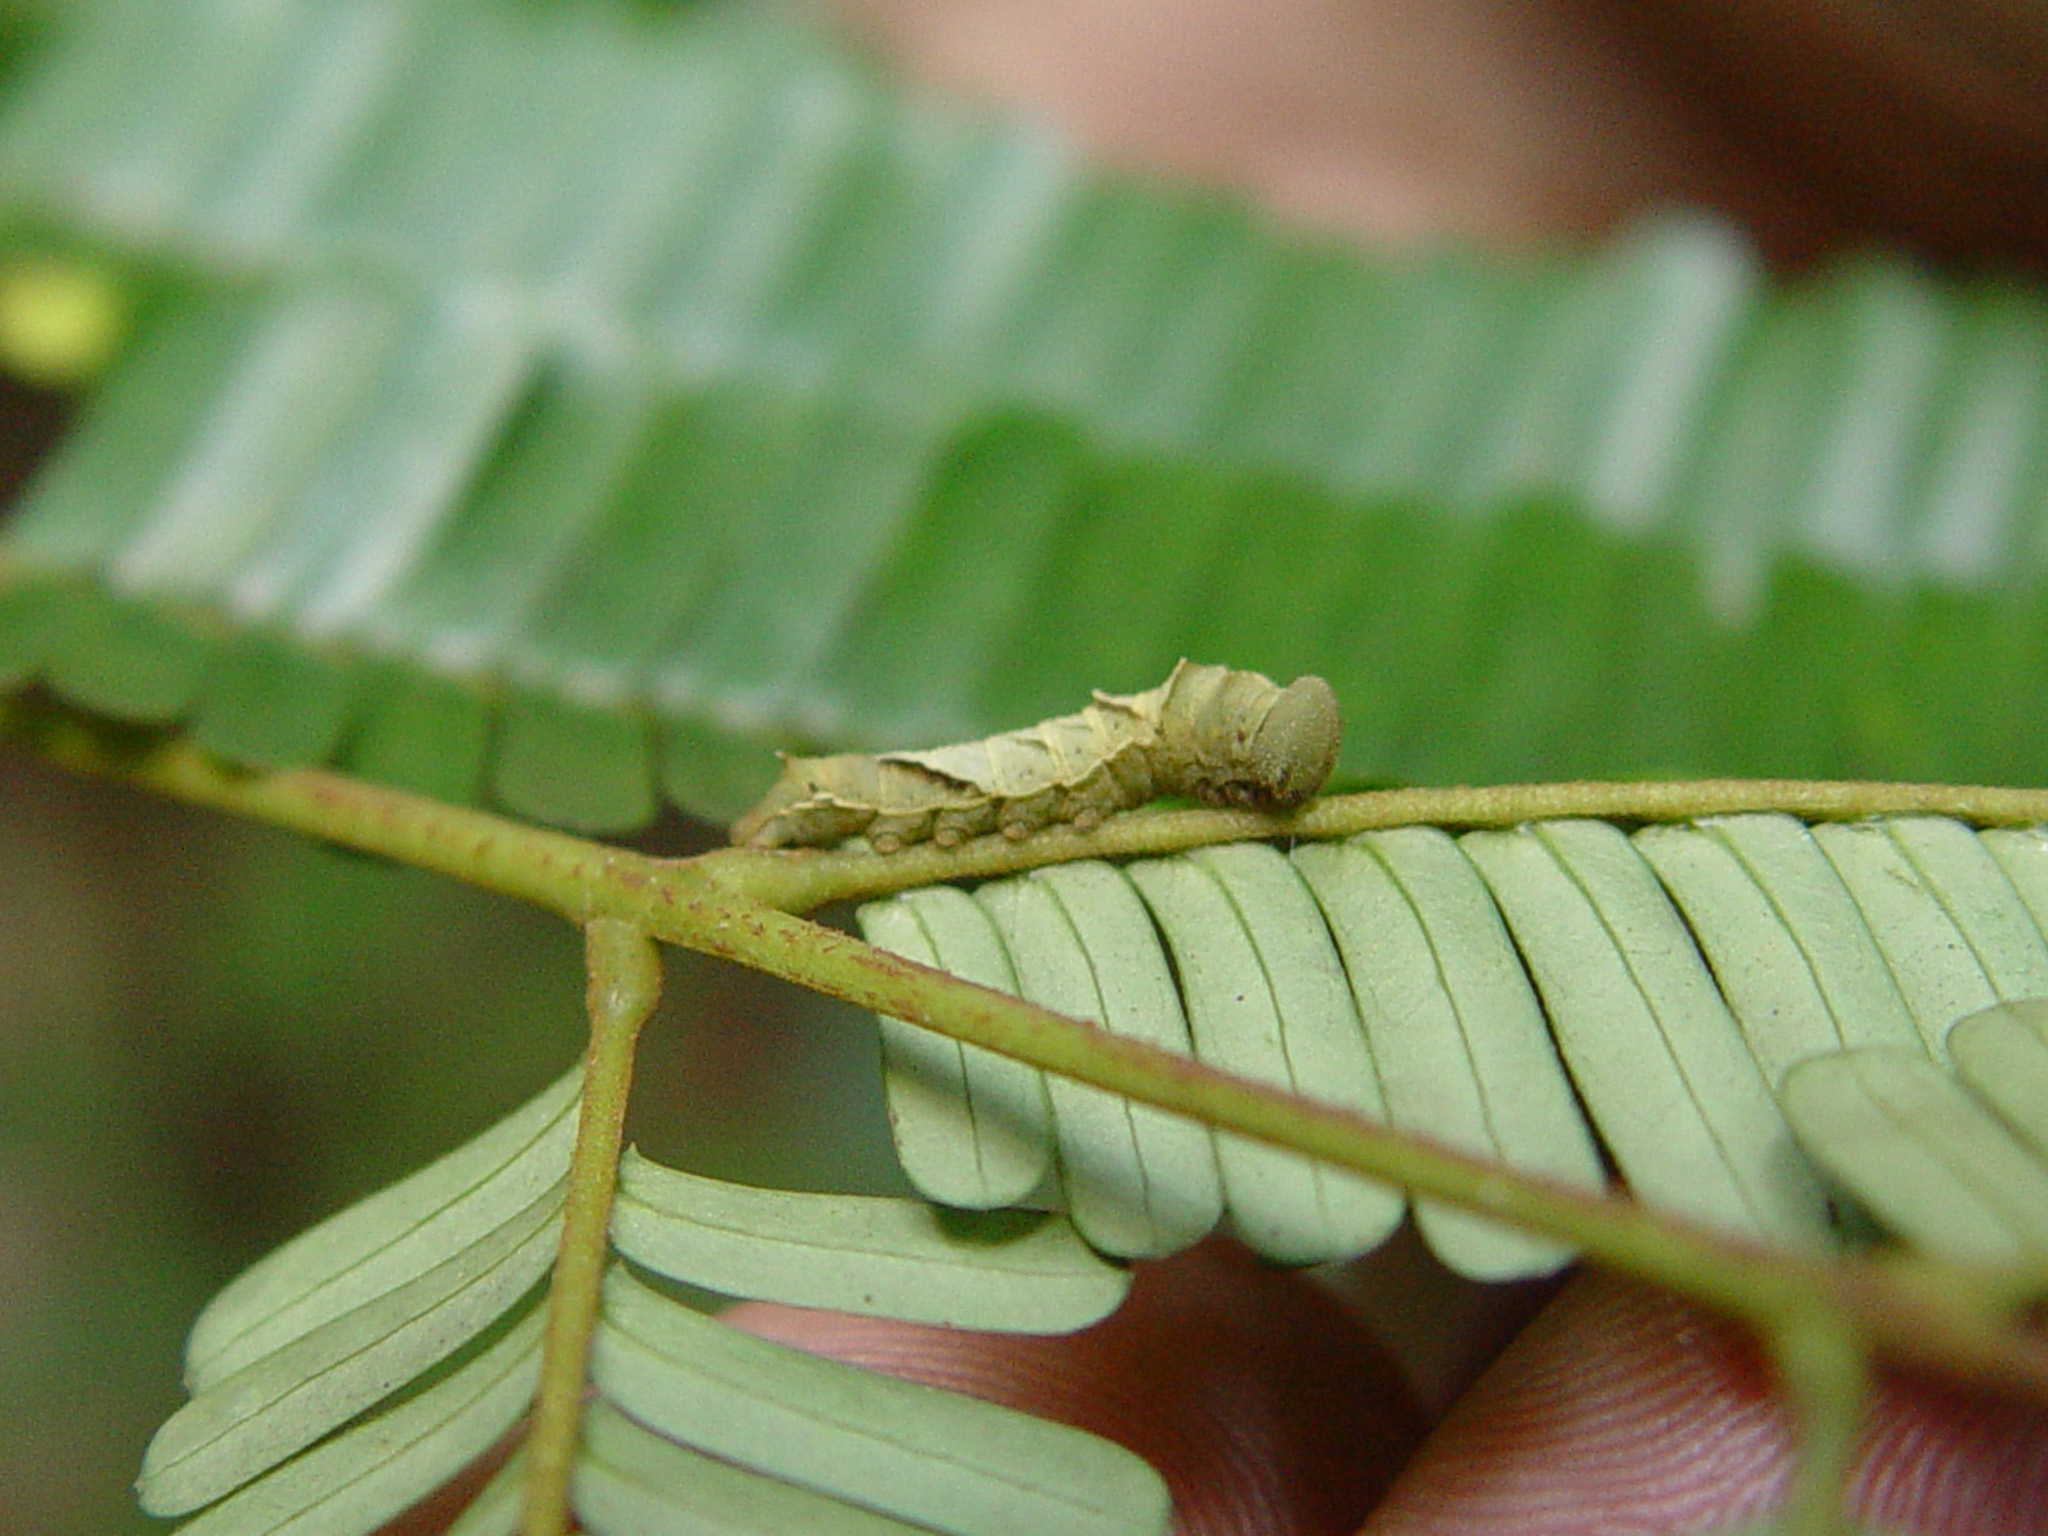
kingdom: Animalia
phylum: Arthropoda
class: Insecta
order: Lepidoptera
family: Nymphalidae
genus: Pantoporia
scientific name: Pantoporia hordonia
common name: Common lascar
